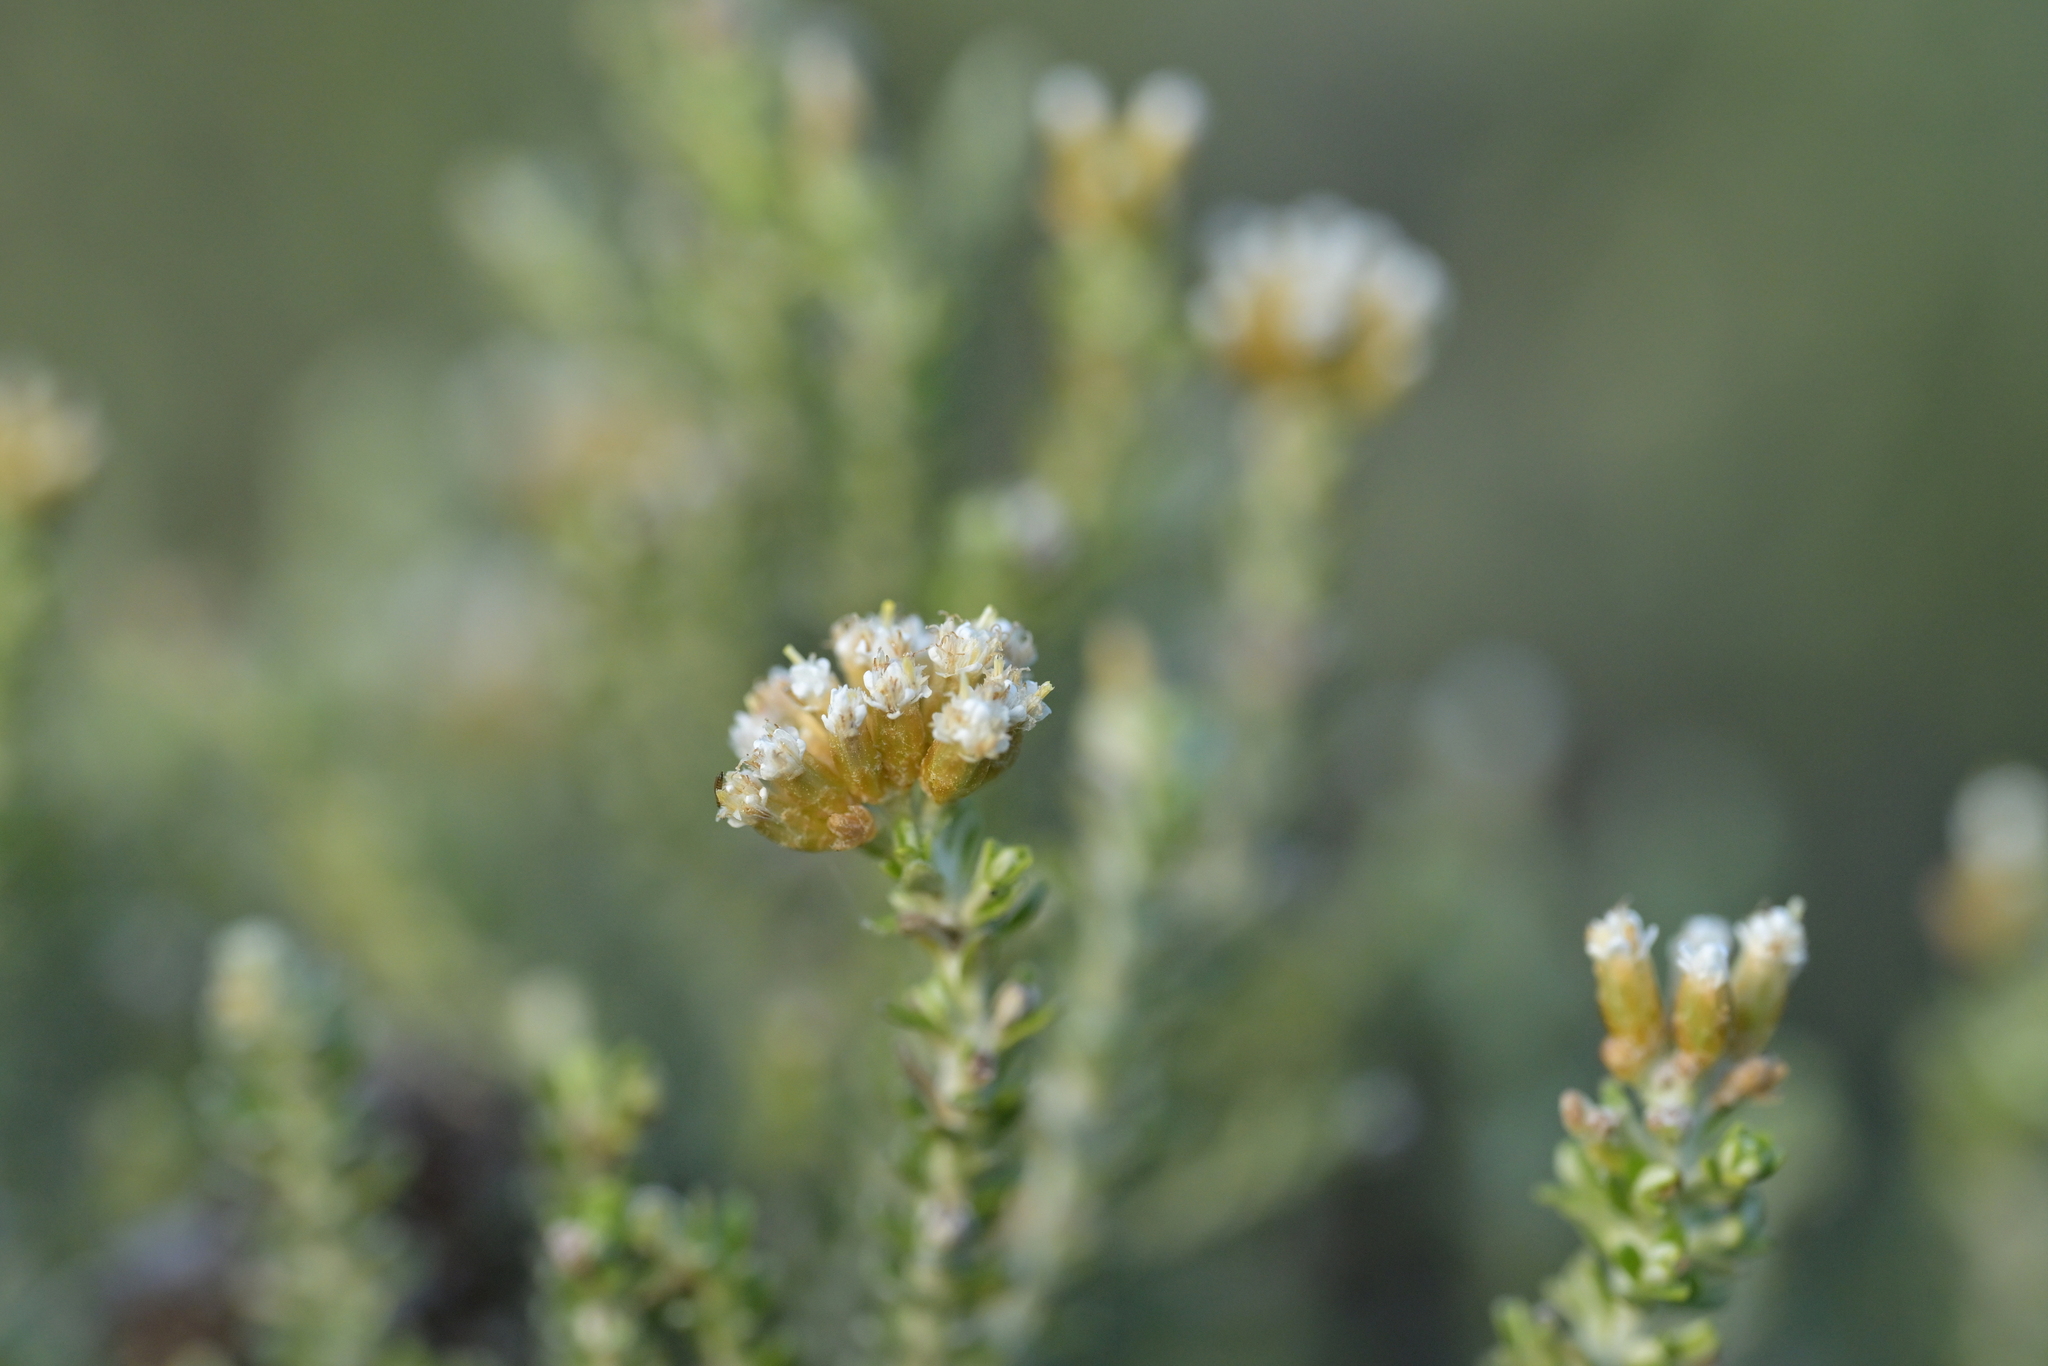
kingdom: Plantae
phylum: Tracheophyta
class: Magnoliopsida
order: Asterales
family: Asteraceae
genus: Ozothamnus
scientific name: Ozothamnus leptophyllus
